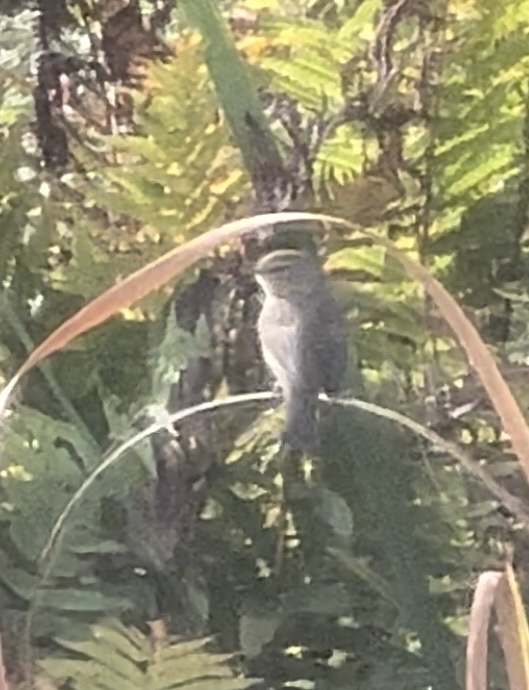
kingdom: Animalia
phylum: Chordata
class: Aves
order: Passeriformes
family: Phylloscopidae
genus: Phylloscopus
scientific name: Phylloscopus collybita
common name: Common chiffchaff
